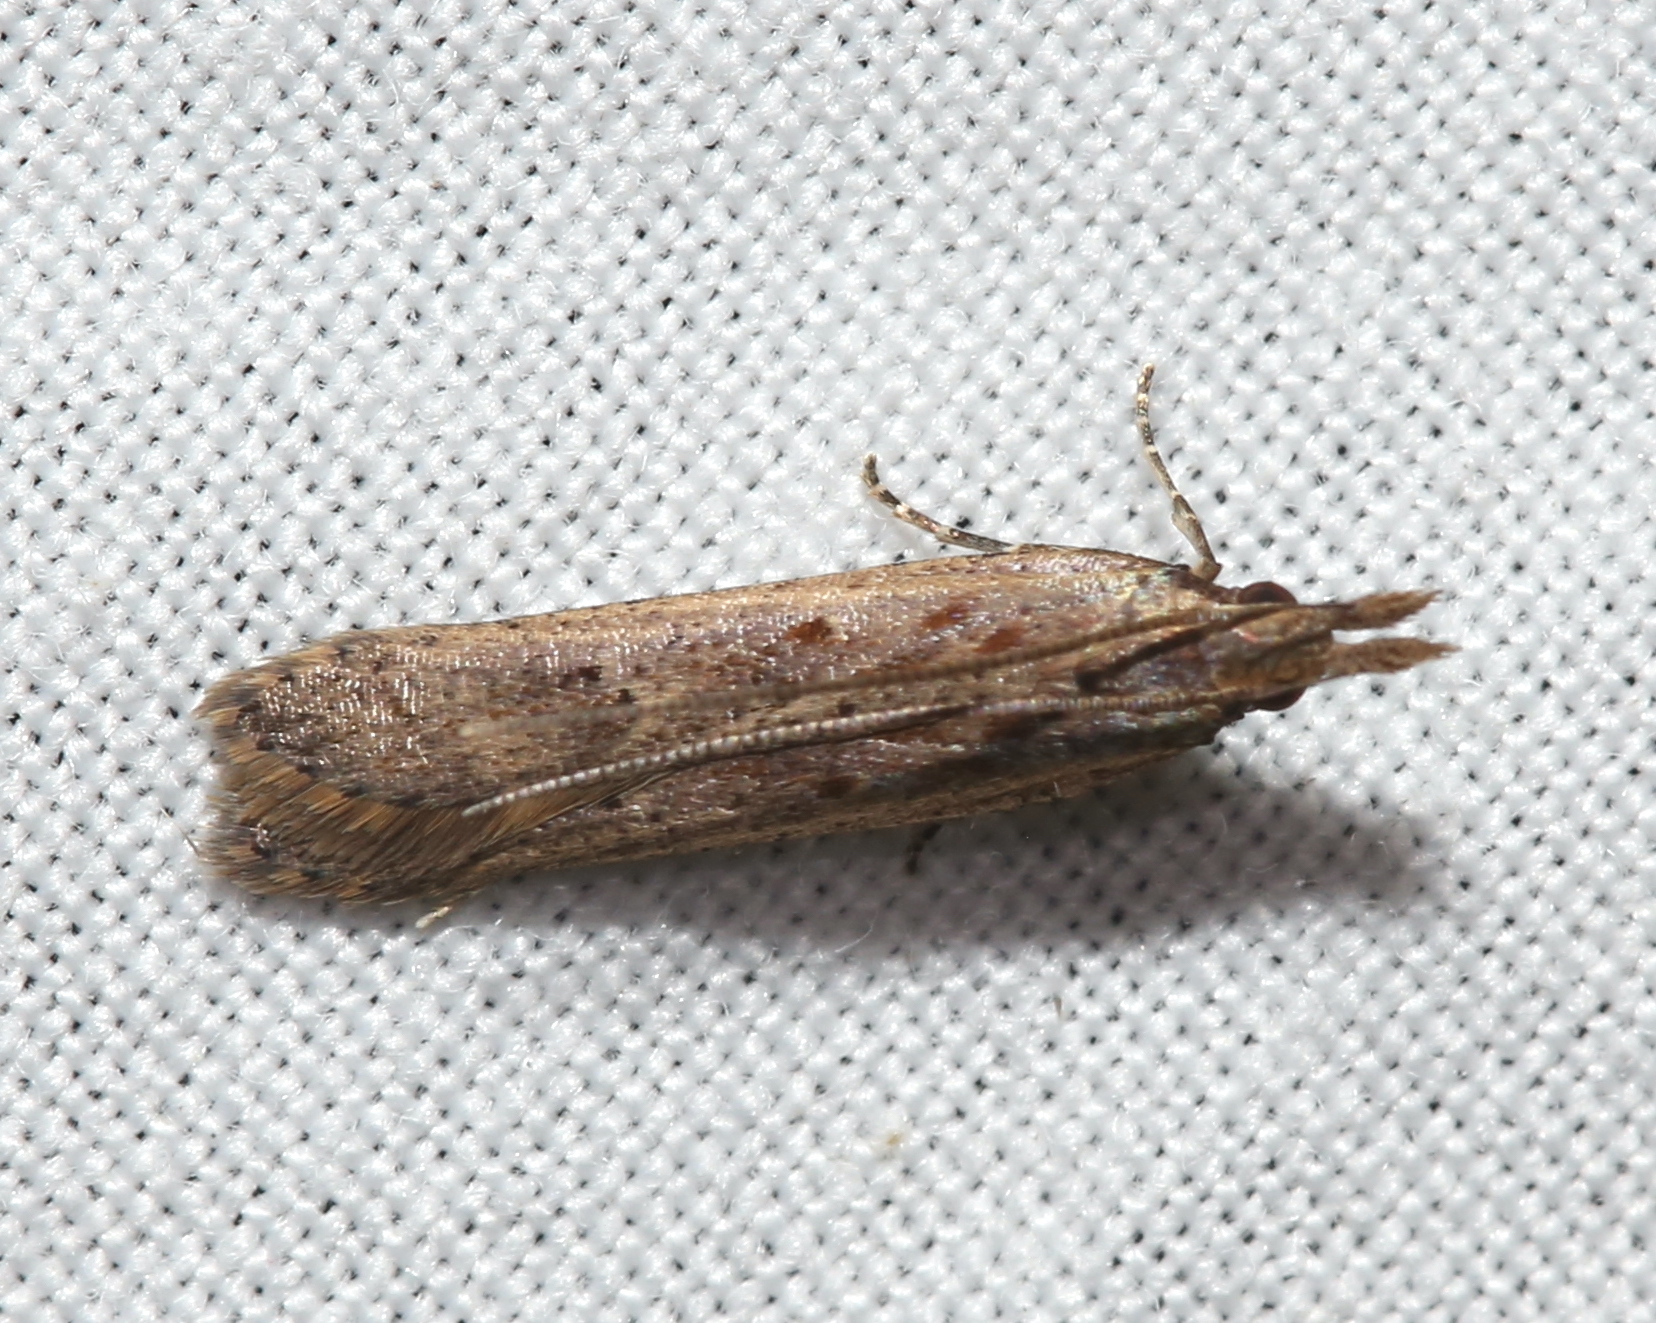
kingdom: Animalia
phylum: Arthropoda
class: Insecta
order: Lepidoptera
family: Gelechiidae
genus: Dichomeris
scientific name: Dichomeris ligulella
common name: Moth
